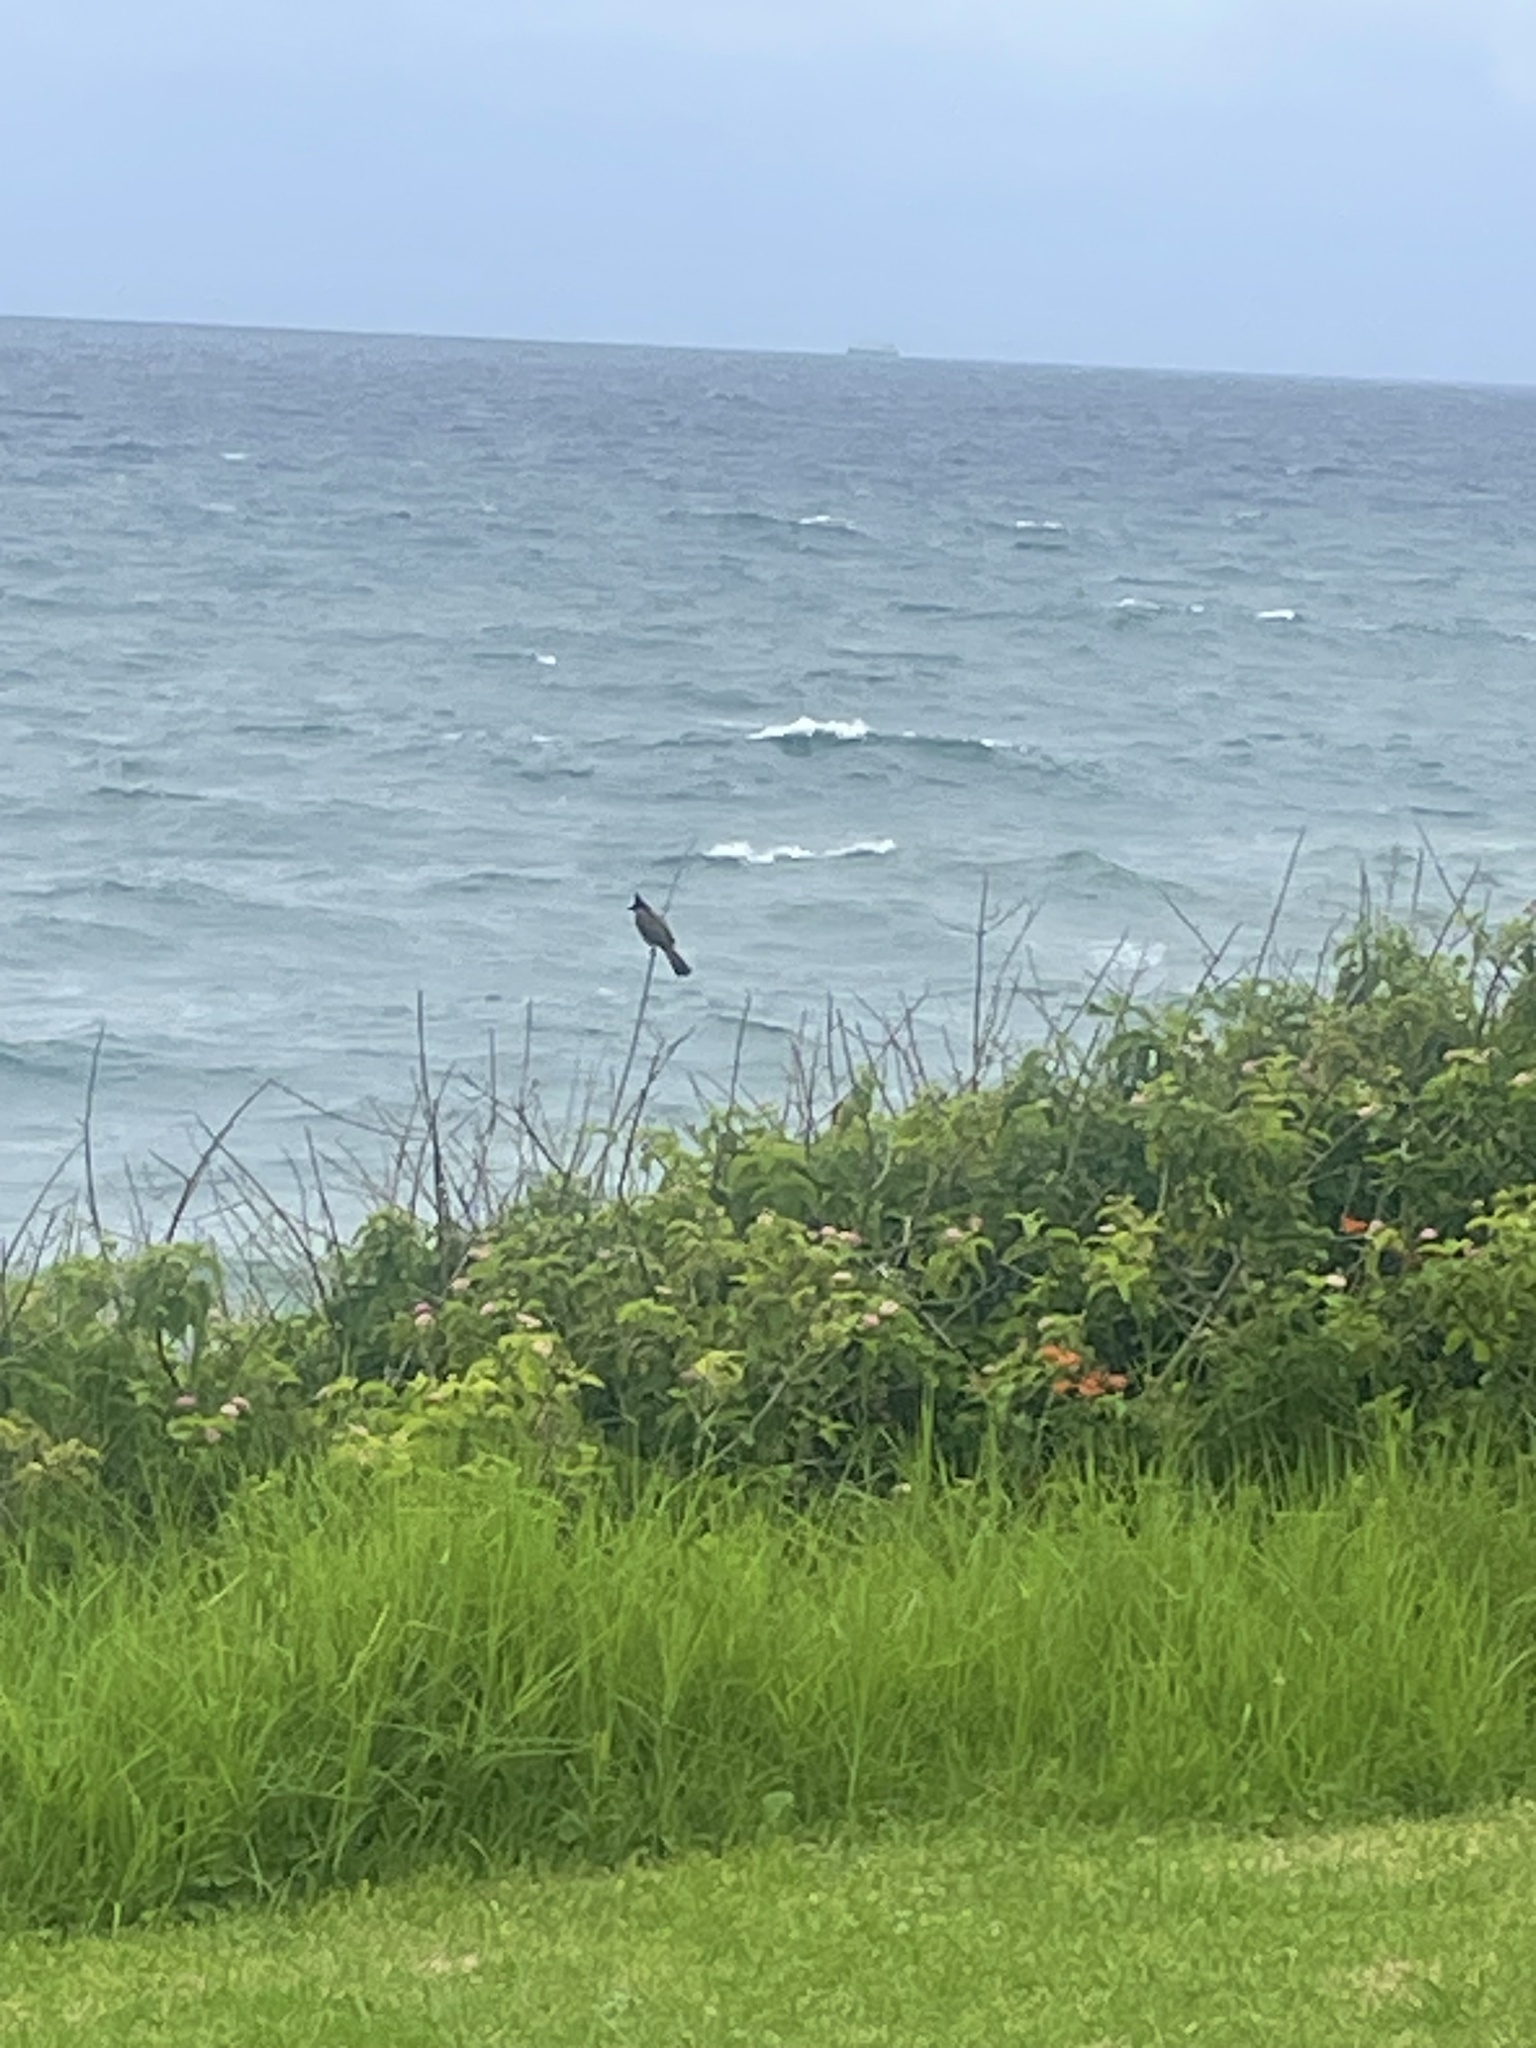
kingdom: Animalia
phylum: Chordata
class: Aves
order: Passeriformes
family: Pycnonotidae
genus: Pycnonotus
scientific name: Pycnonotus jocosus
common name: Red-whiskered bulbul
